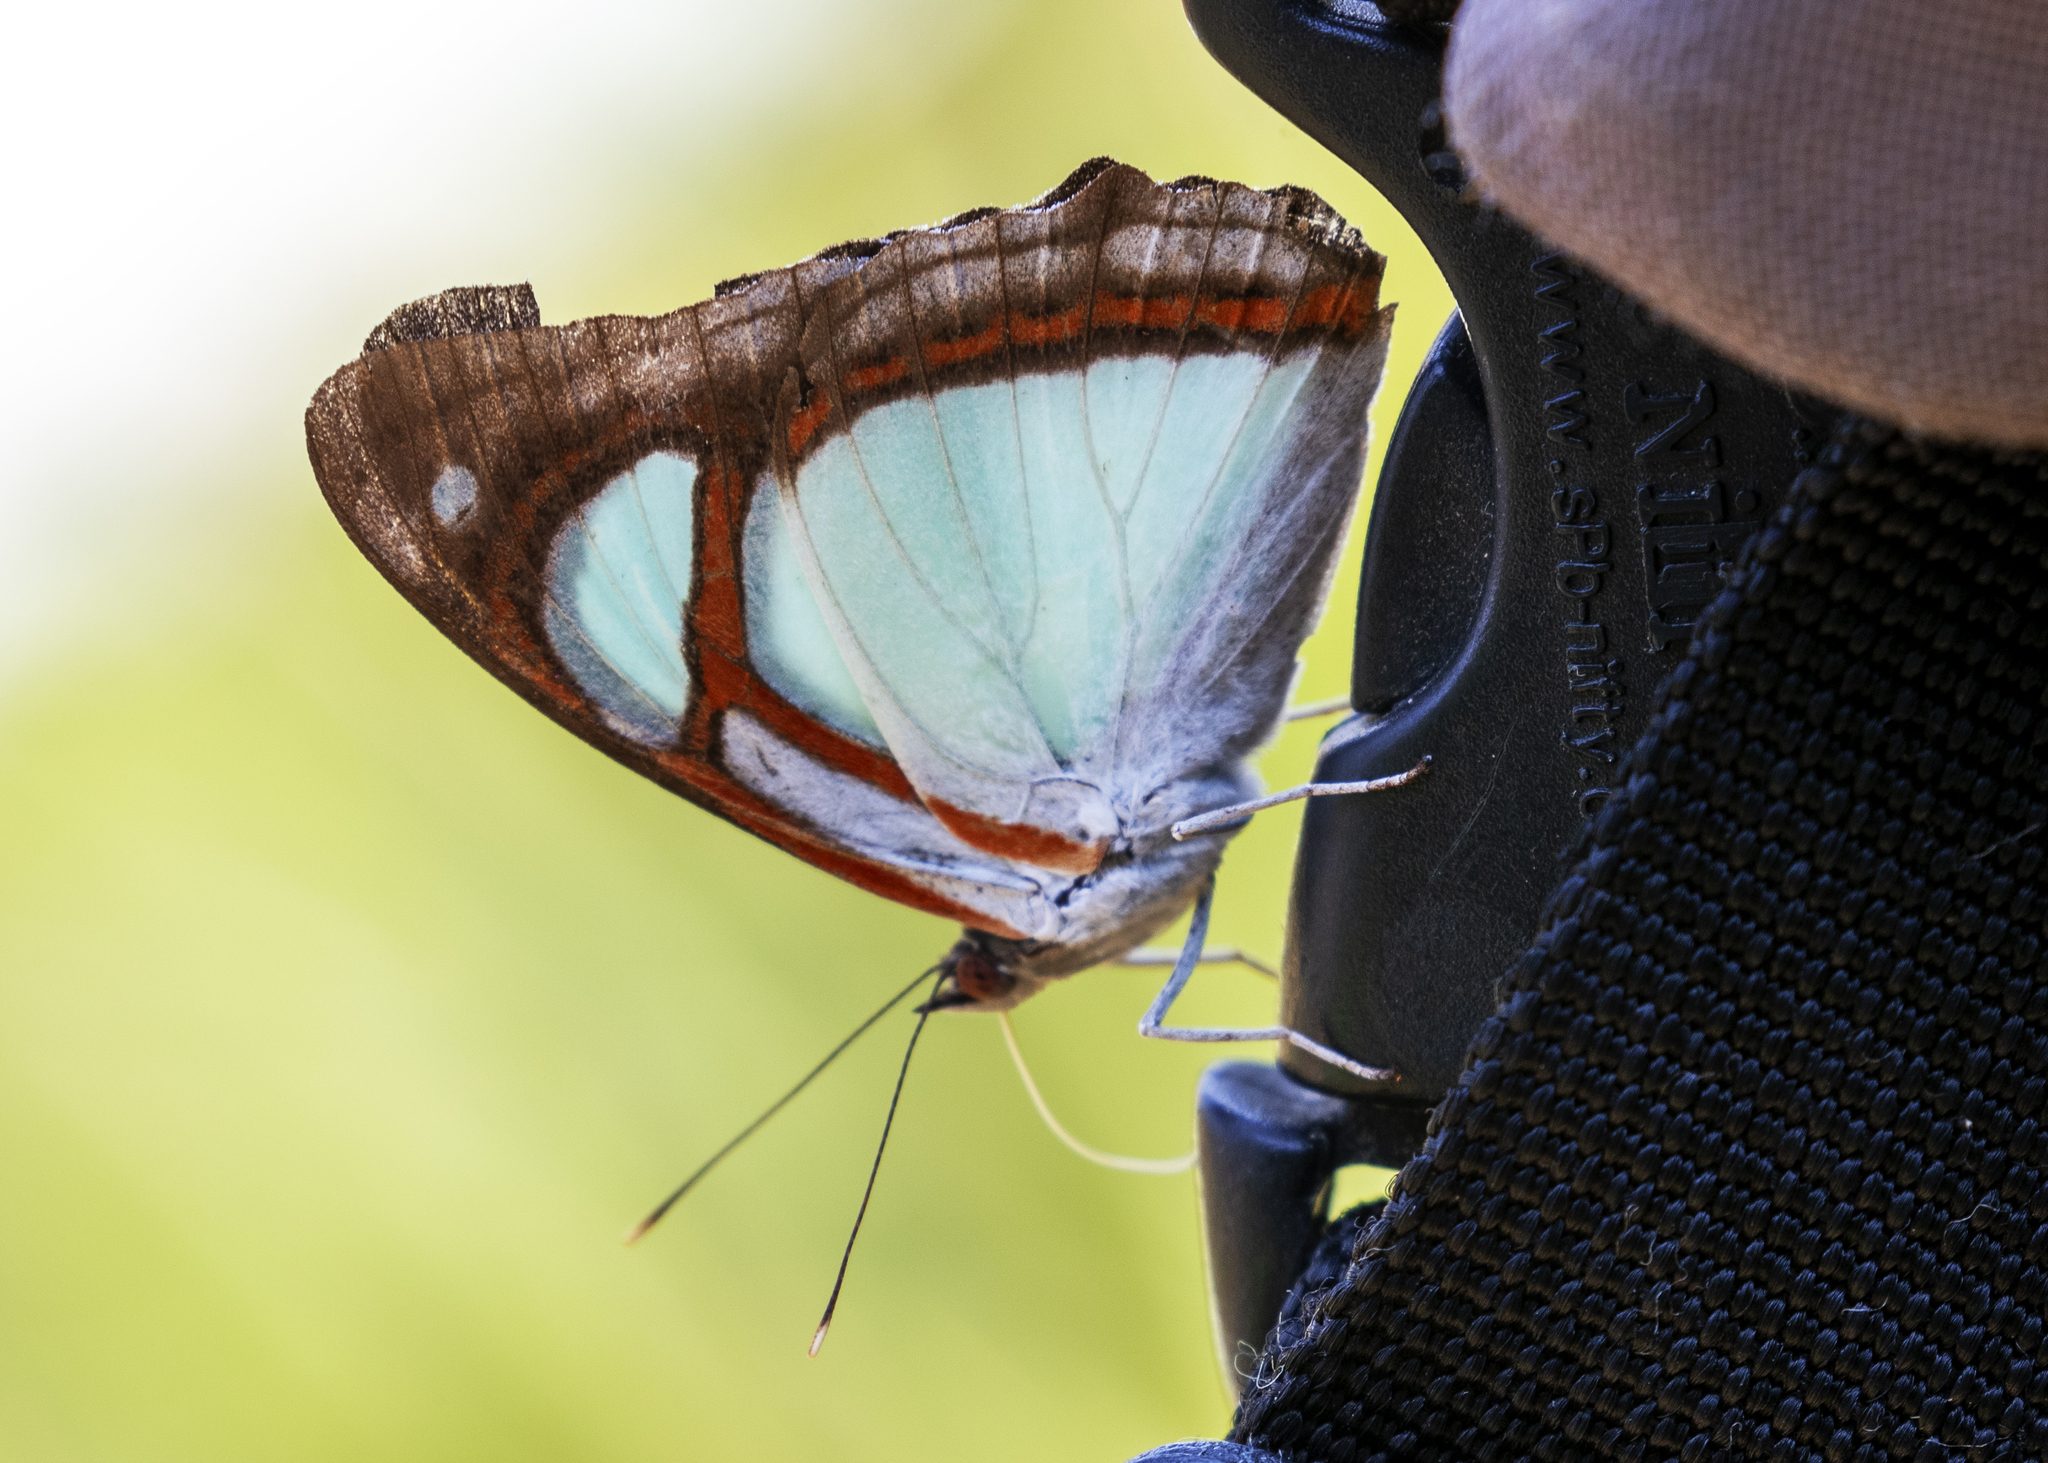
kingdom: Animalia
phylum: Arthropoda
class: Insecta
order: Lepidoptera
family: Nymphalidae
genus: Pyrrhogyra
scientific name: Pyrrhogyra edocla
